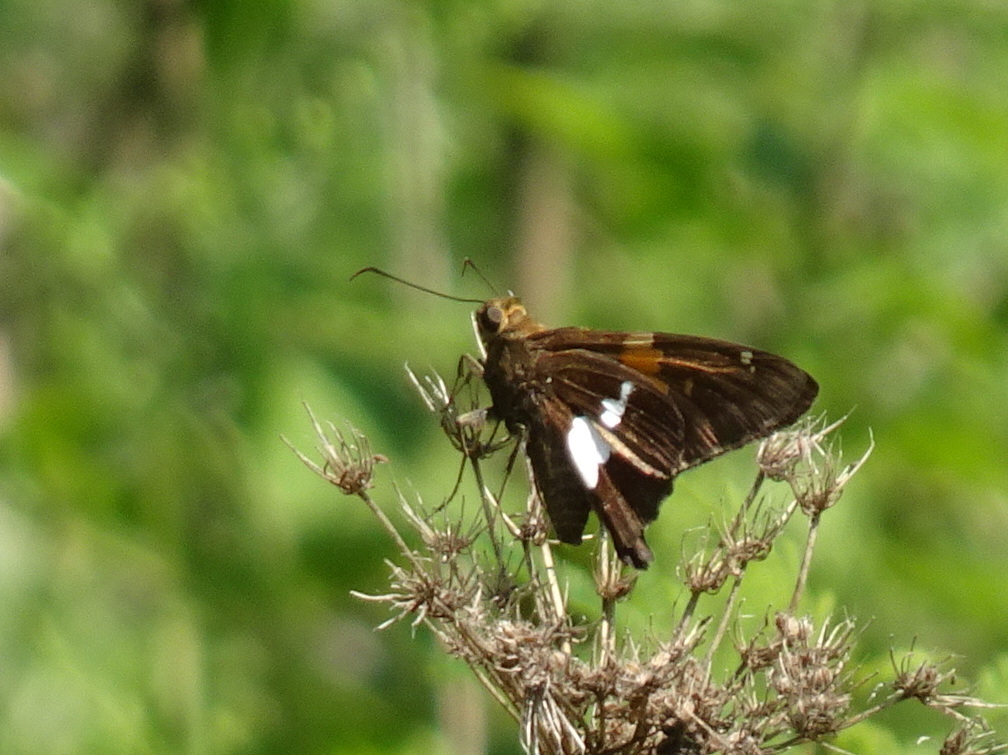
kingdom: Animalia
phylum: Arthropoda
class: Insecta
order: Lepidoptera
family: Hesperiidae
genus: Epargyreus
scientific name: Epargyreus clarus
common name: Silver-spotted skipper
